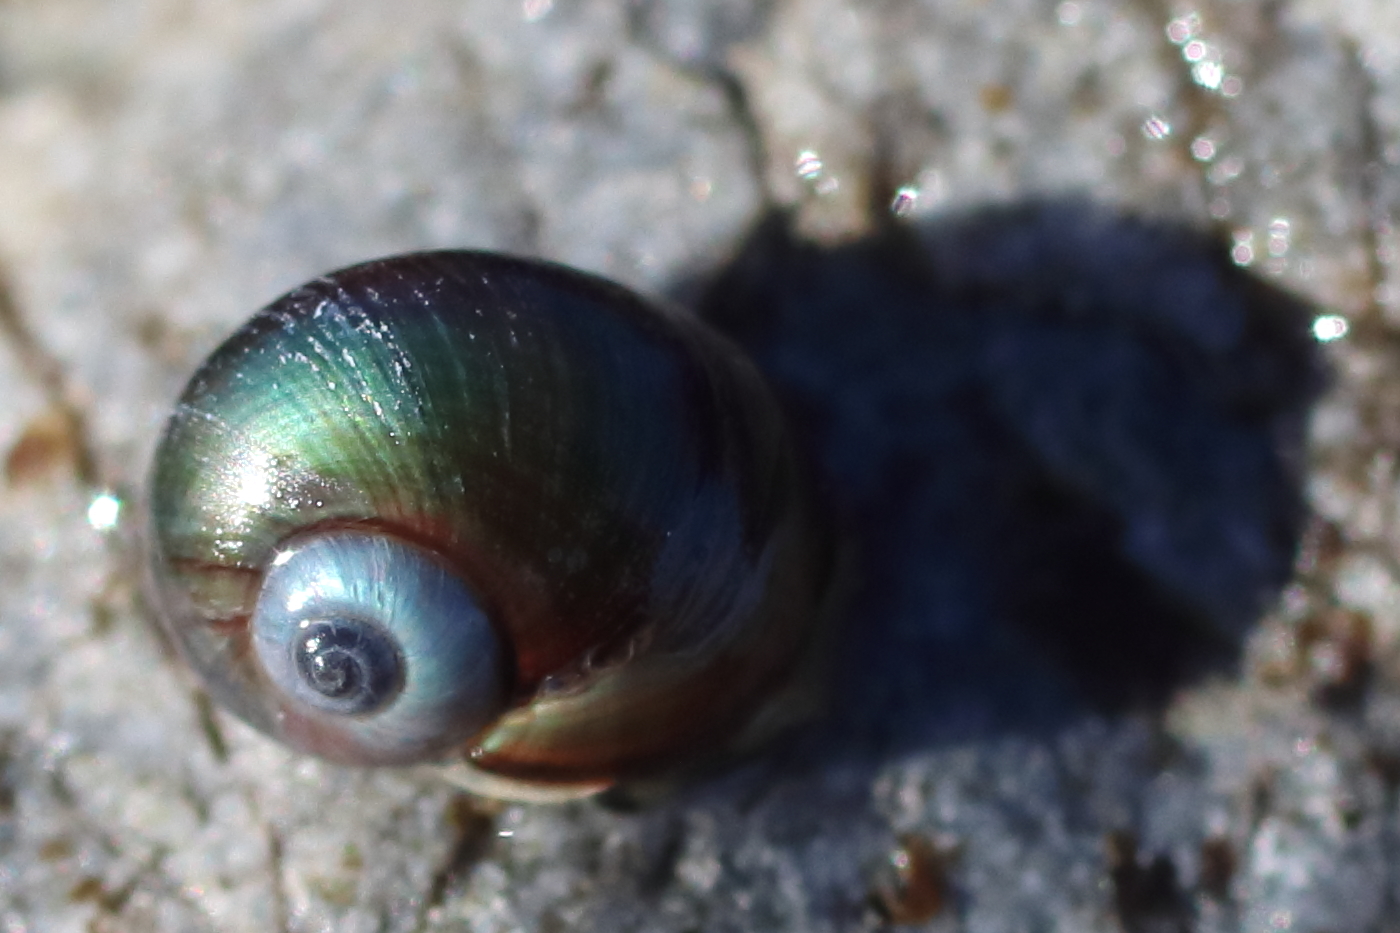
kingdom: Animalia
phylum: Mollusca
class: Gastropoda
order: Trochida
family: Margaritidae
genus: Margarites
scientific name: Margarites helicinus
